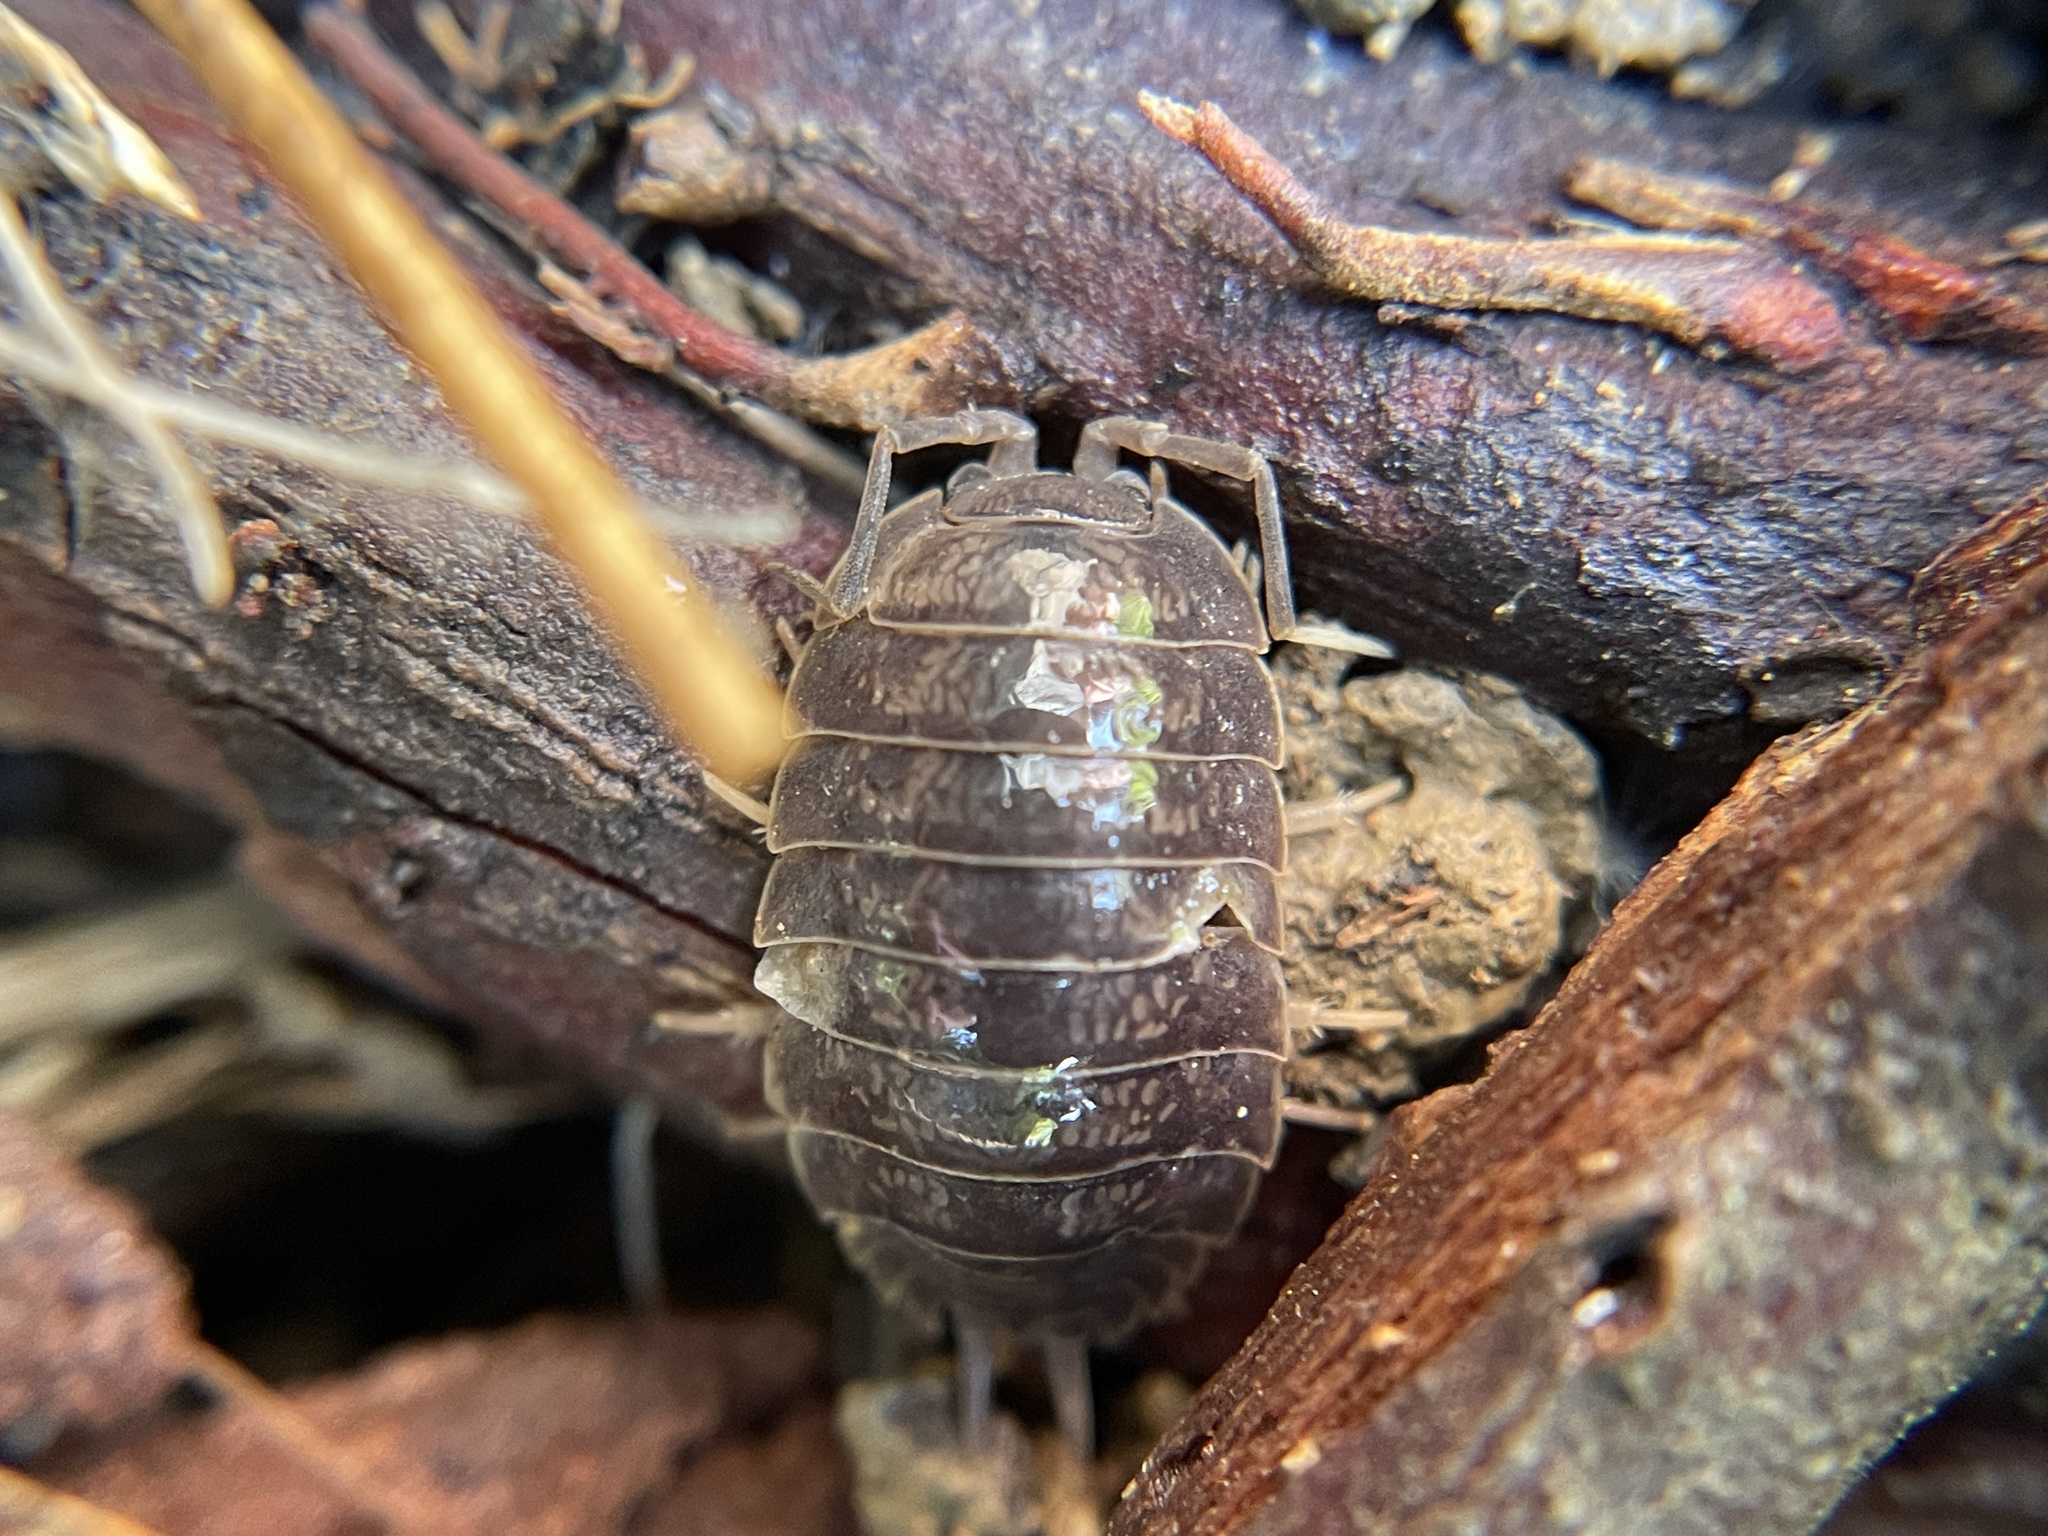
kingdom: Animalia
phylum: Arthropoda
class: Malacostraca
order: Isopoda
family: Porcellionidae
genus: Porcellio
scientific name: Porcellio laevis
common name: Swift woodlouse
